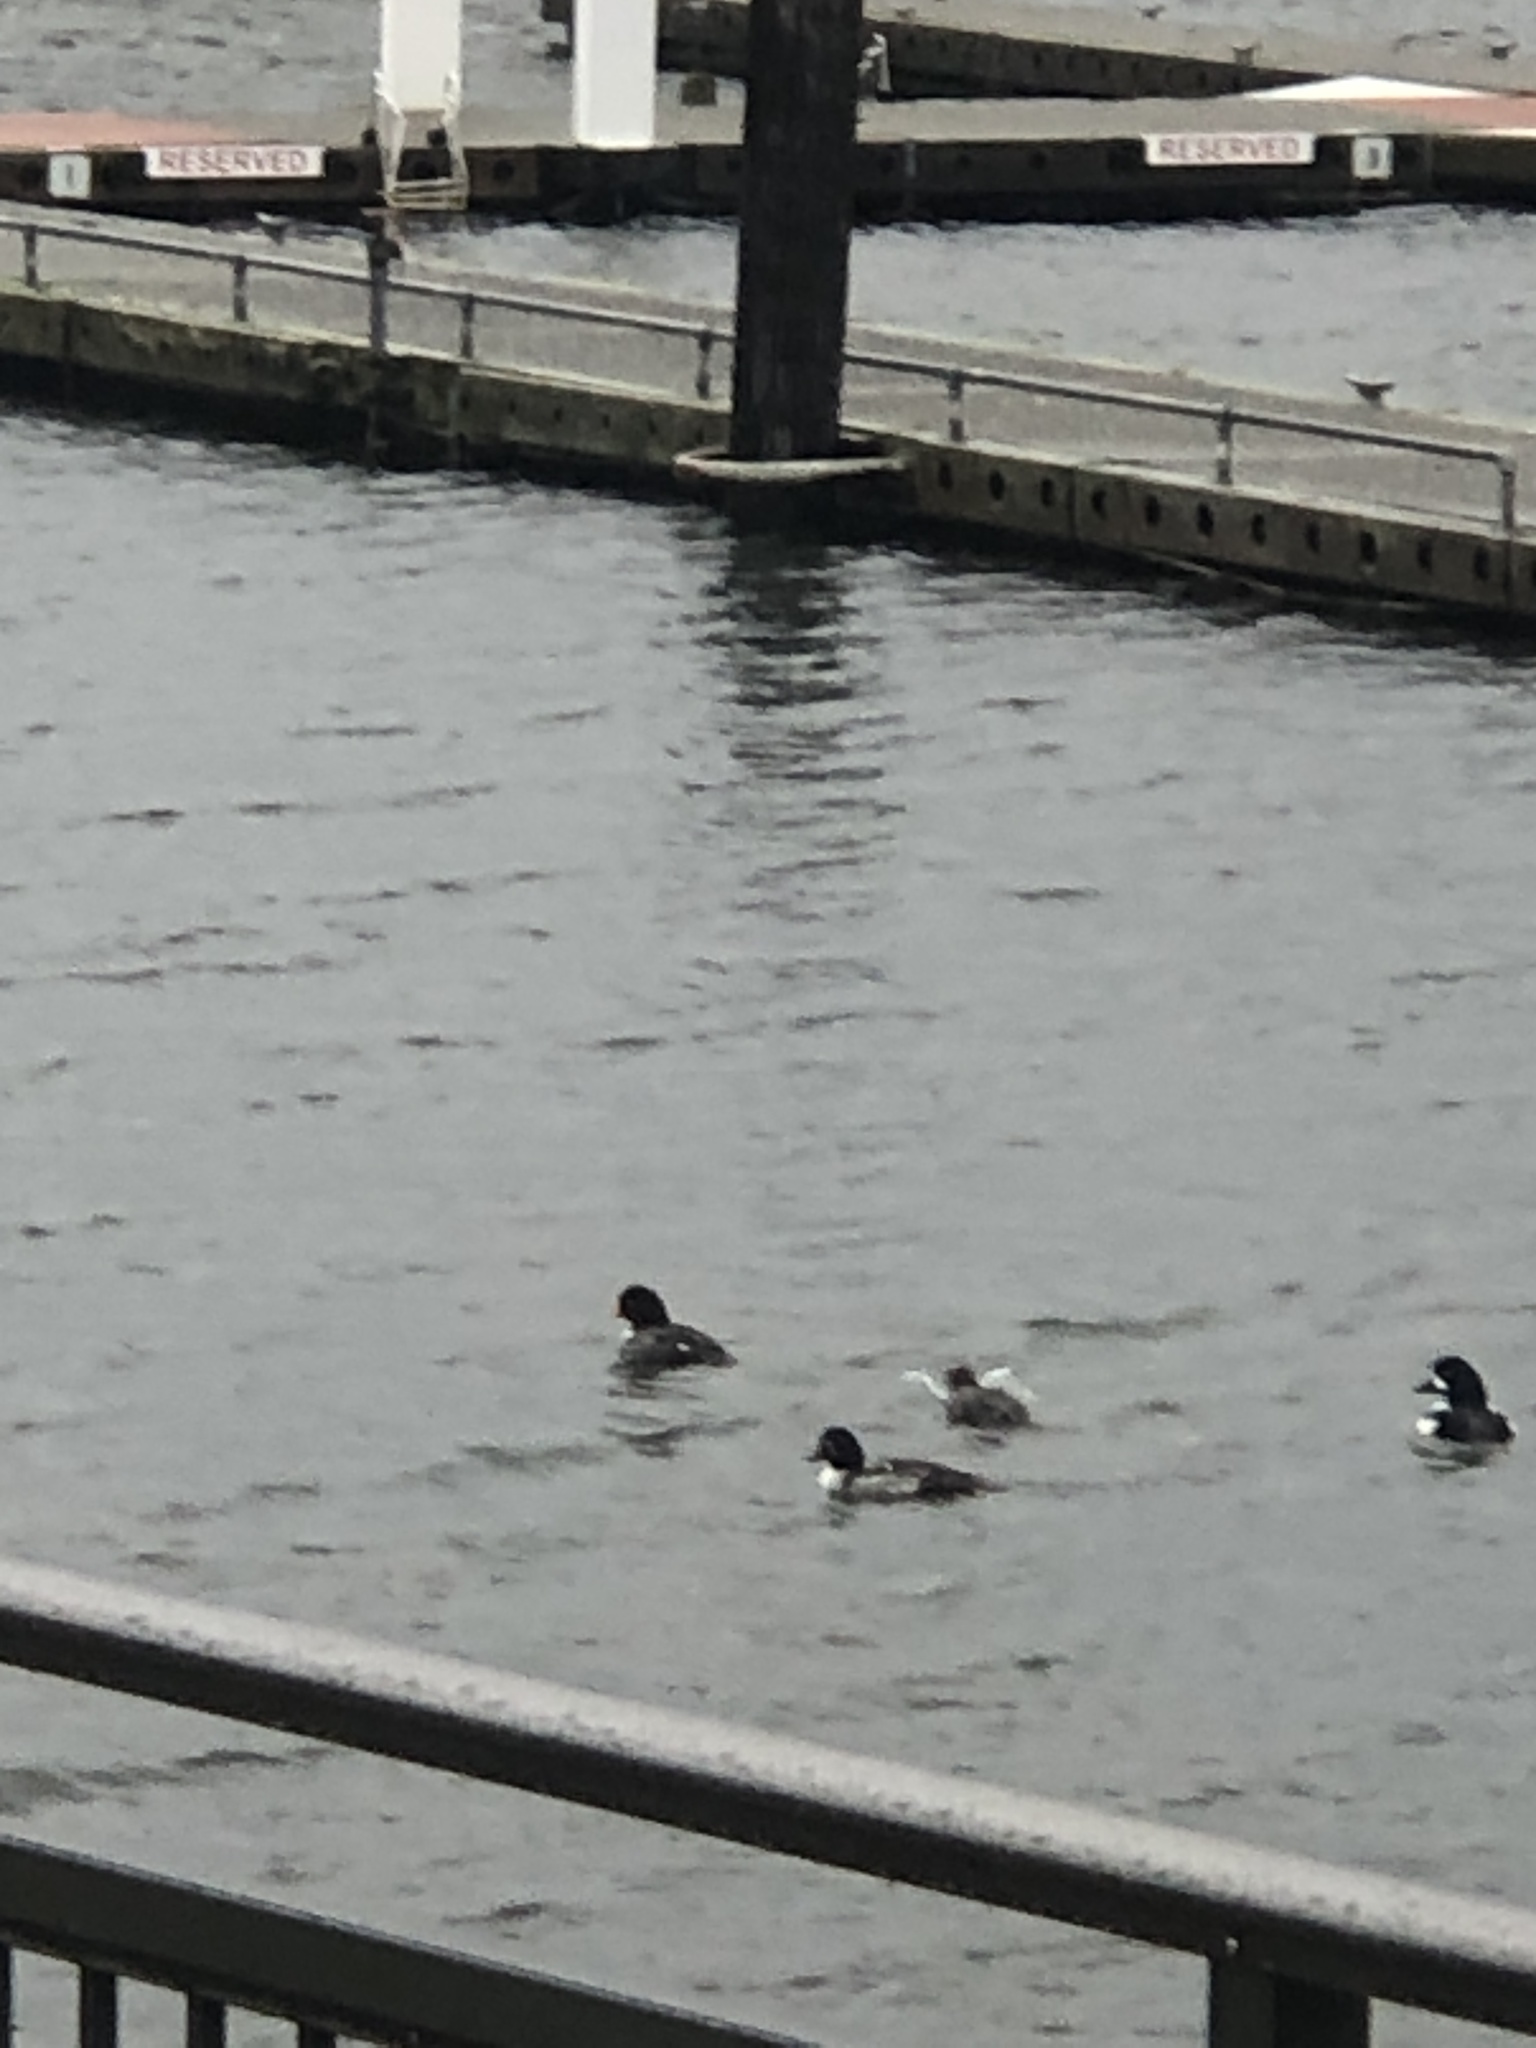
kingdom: Animalia
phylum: Chordata
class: Aves
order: Anseriformes
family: Anatidae
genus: Bucephala
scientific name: Bucephala islandica
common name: Barrow's goldeneye
